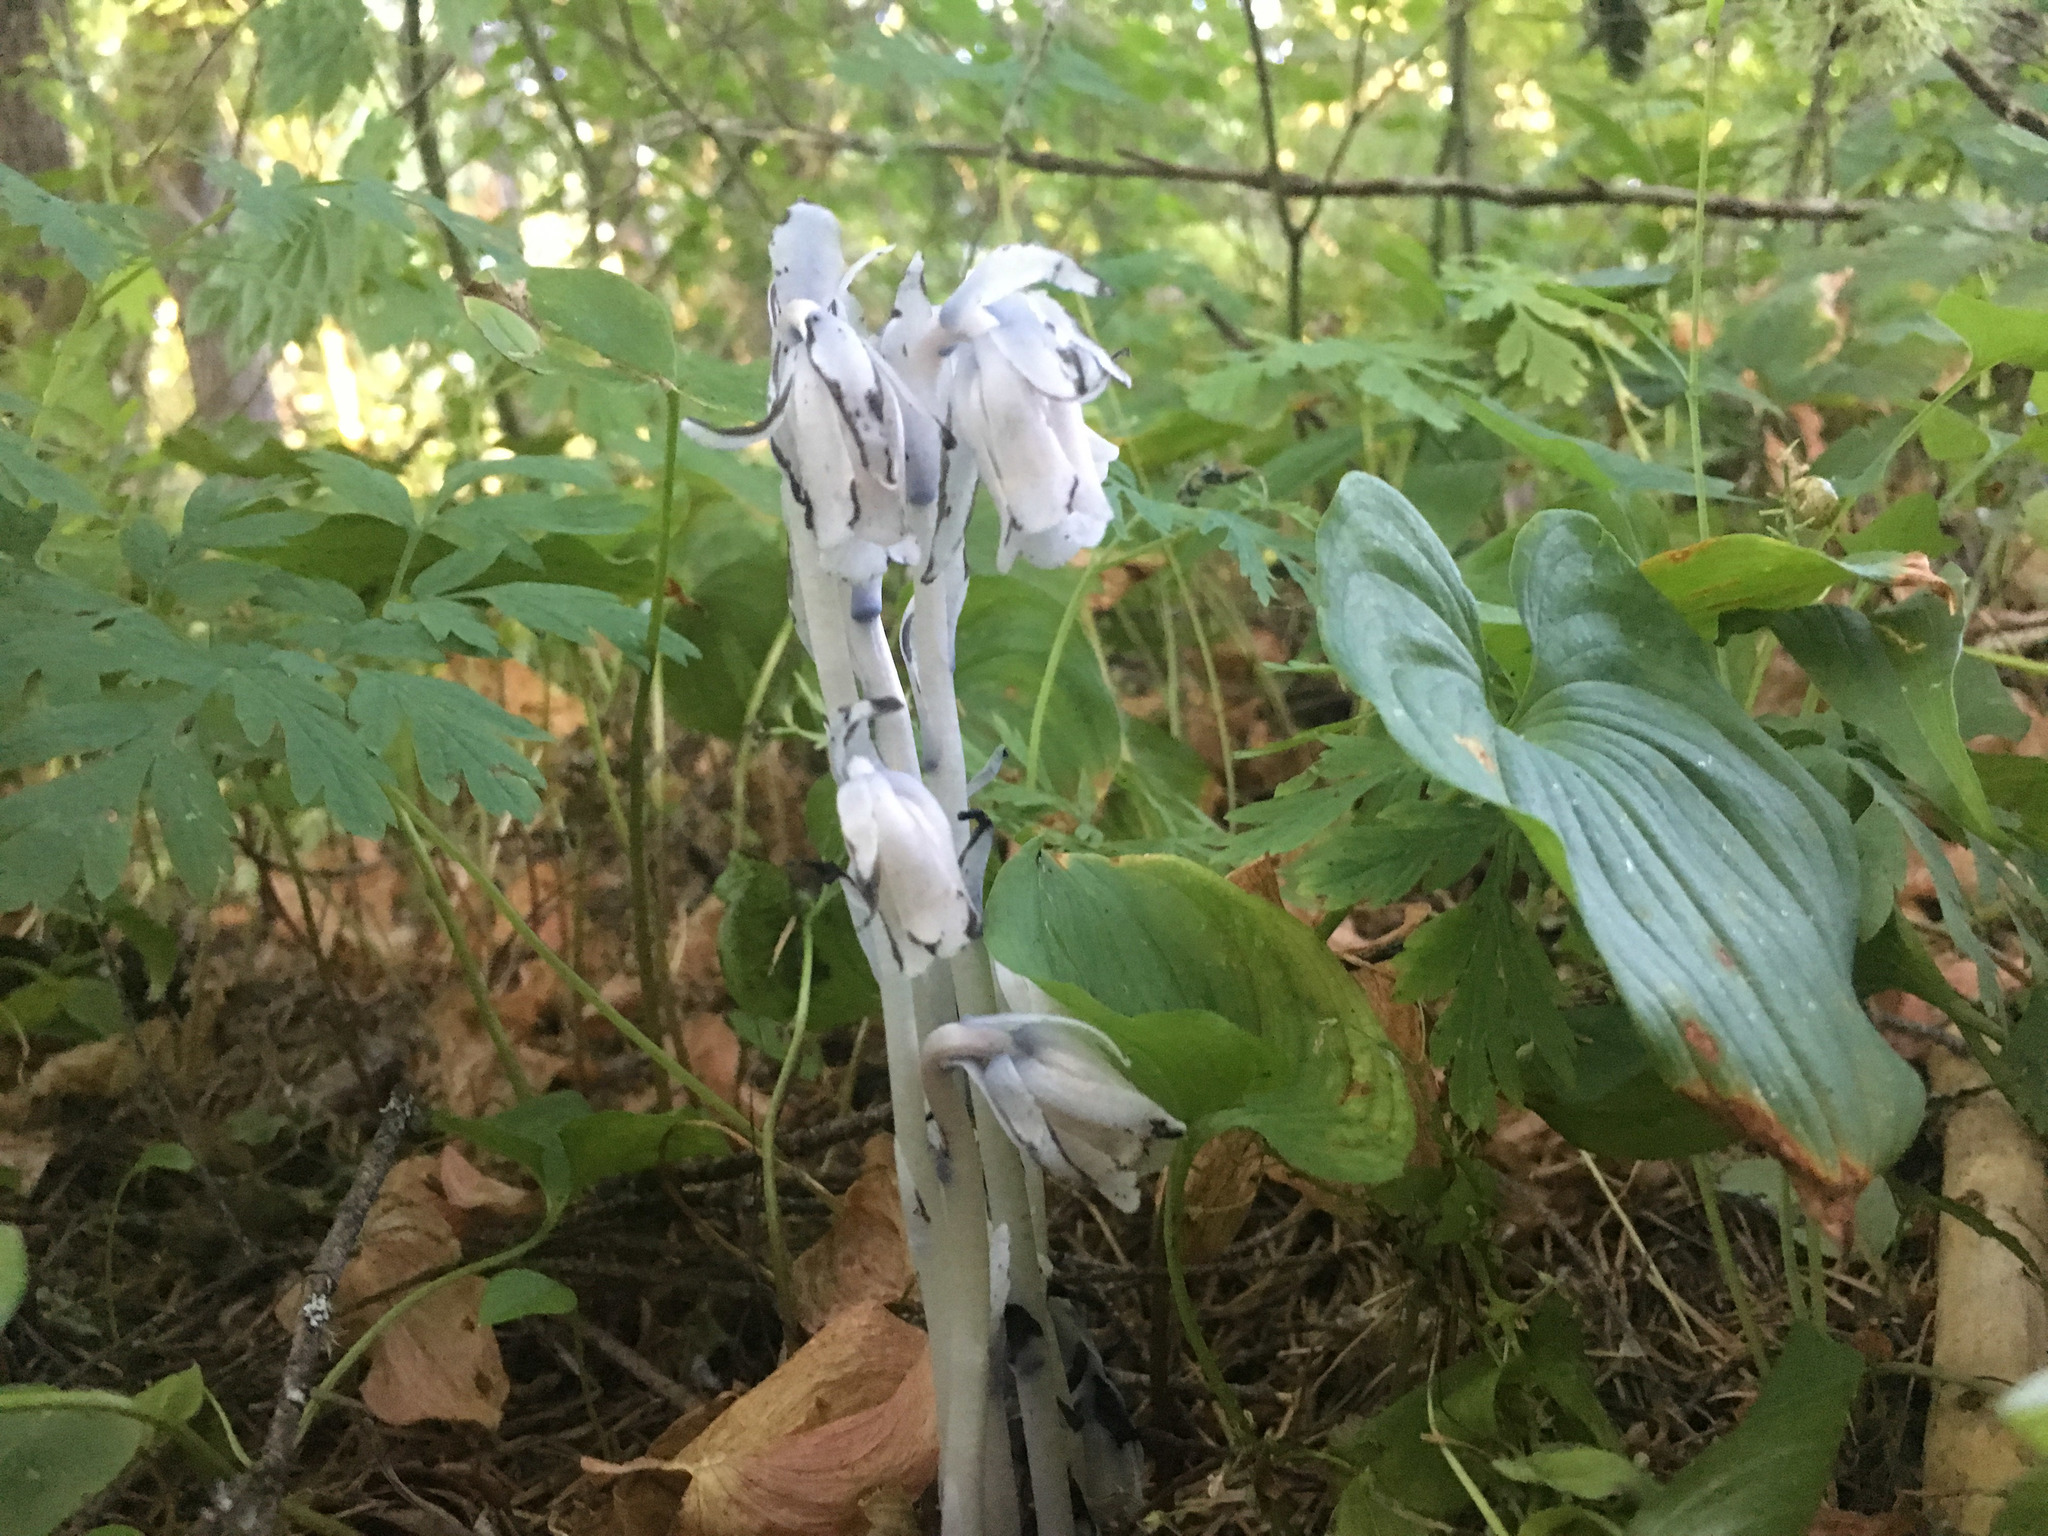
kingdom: Plantae
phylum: Tracheophyta
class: Magnoliopsida
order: Ericales
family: Ericaceae
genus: Monotropa
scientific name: Monotropa uniflora
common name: Convulsion root
